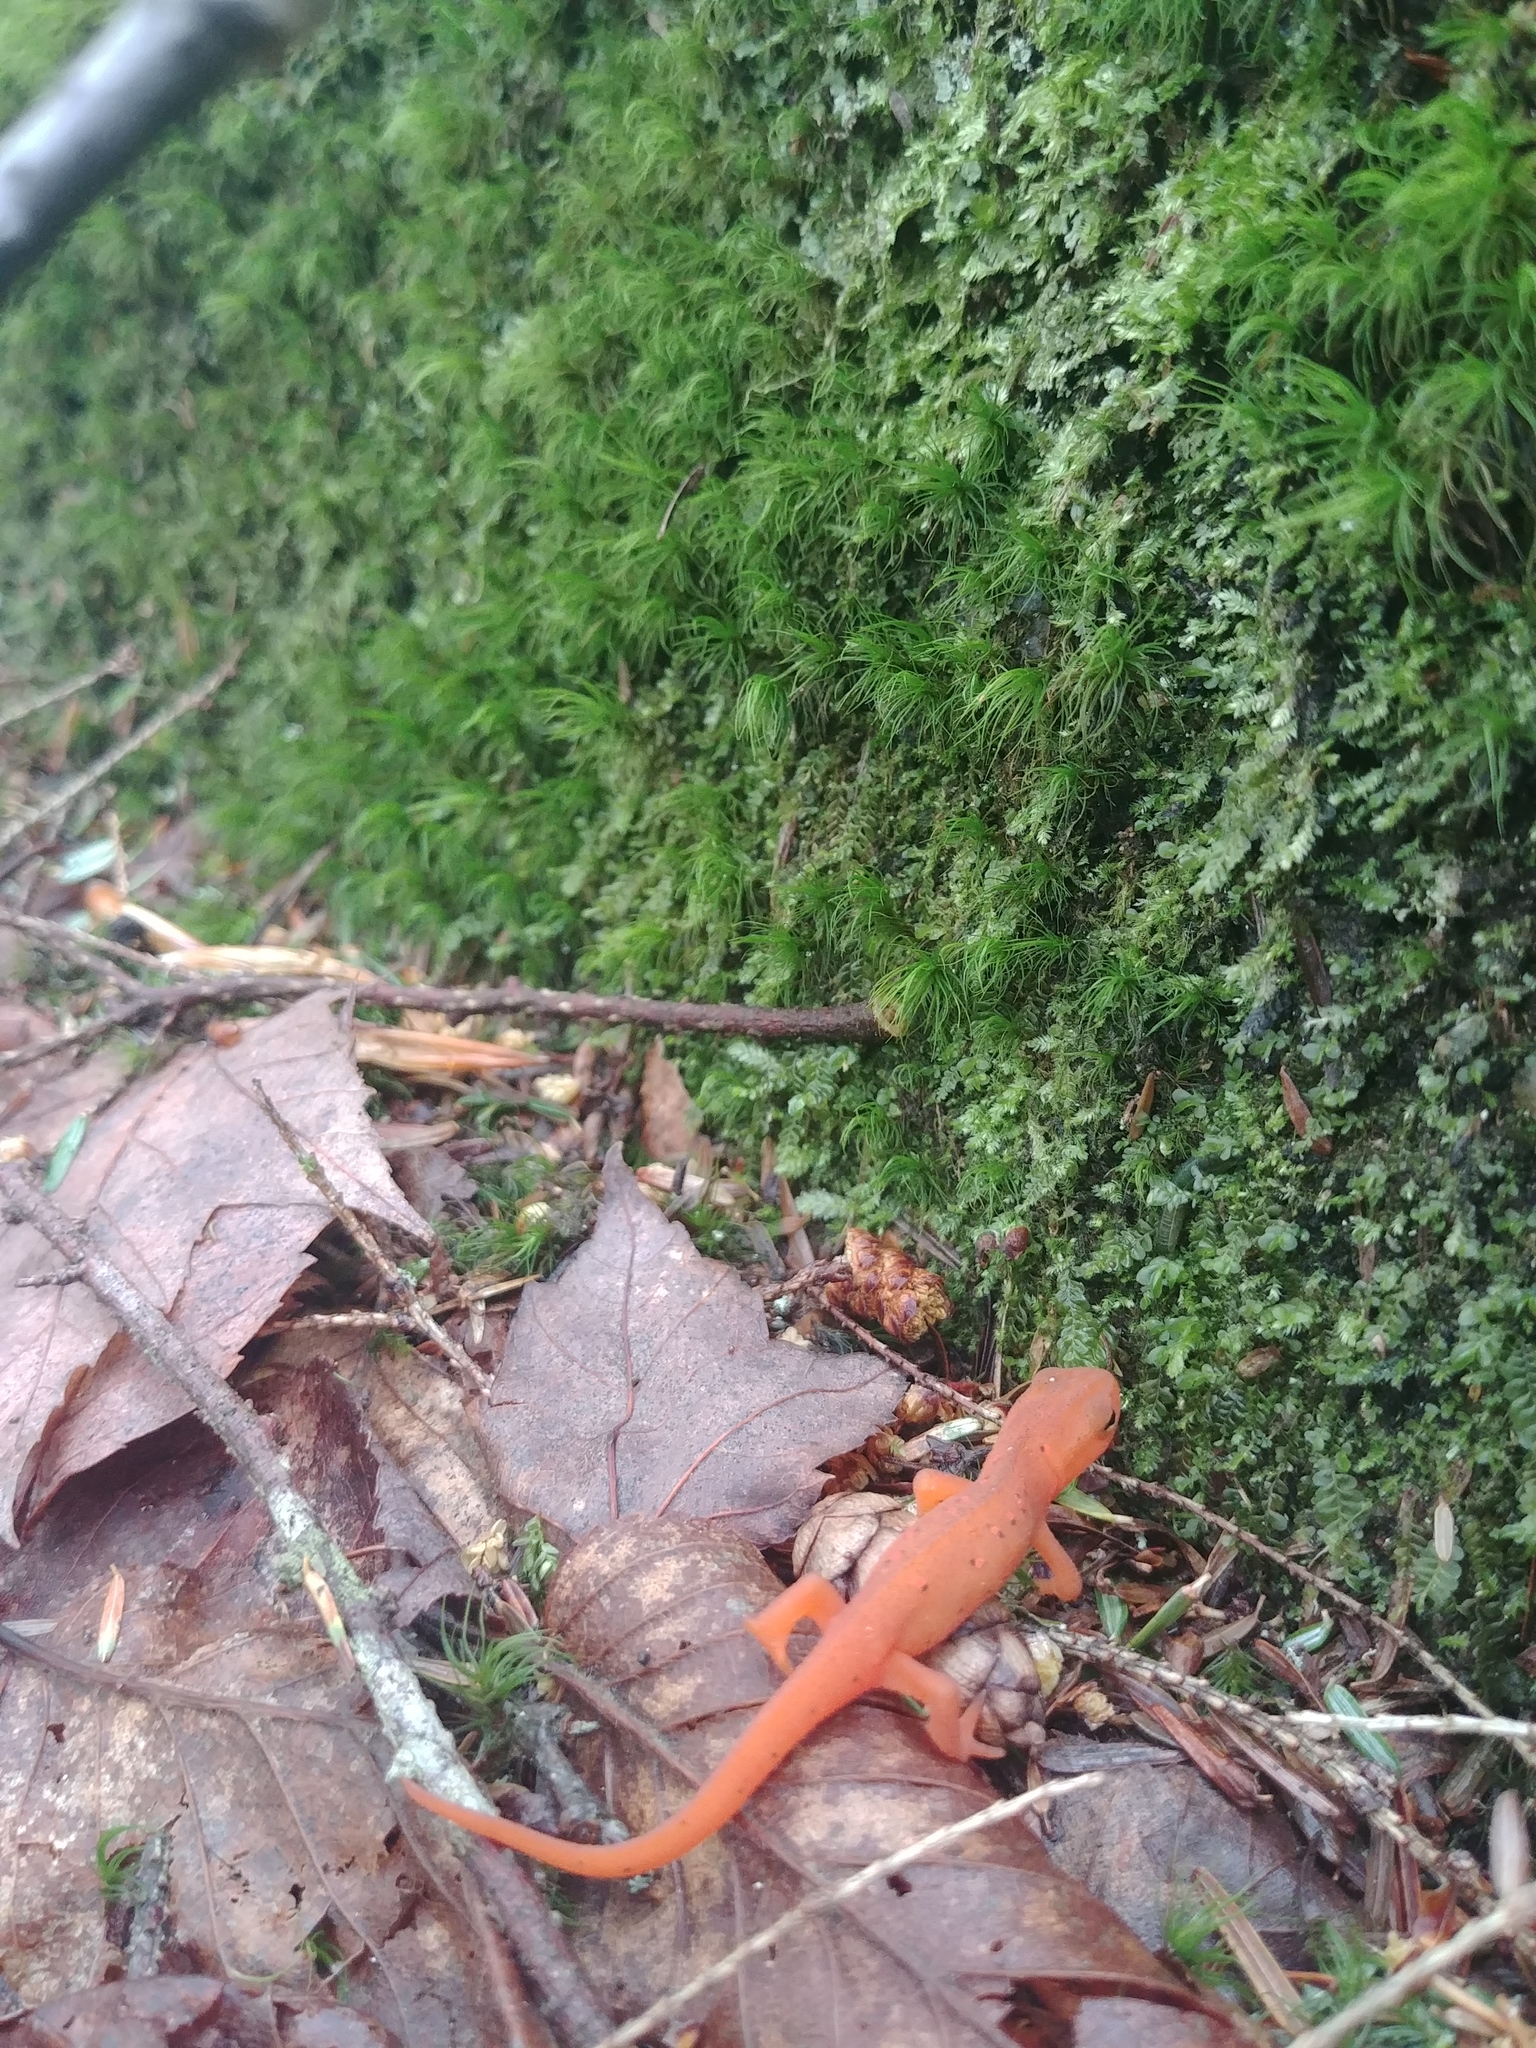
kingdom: Animalia
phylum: Chordata
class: Amphibia
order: Caudata
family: Salamandridae
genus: Notophthalmus
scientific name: Notophthalmus viridescens
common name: Eastern newt
